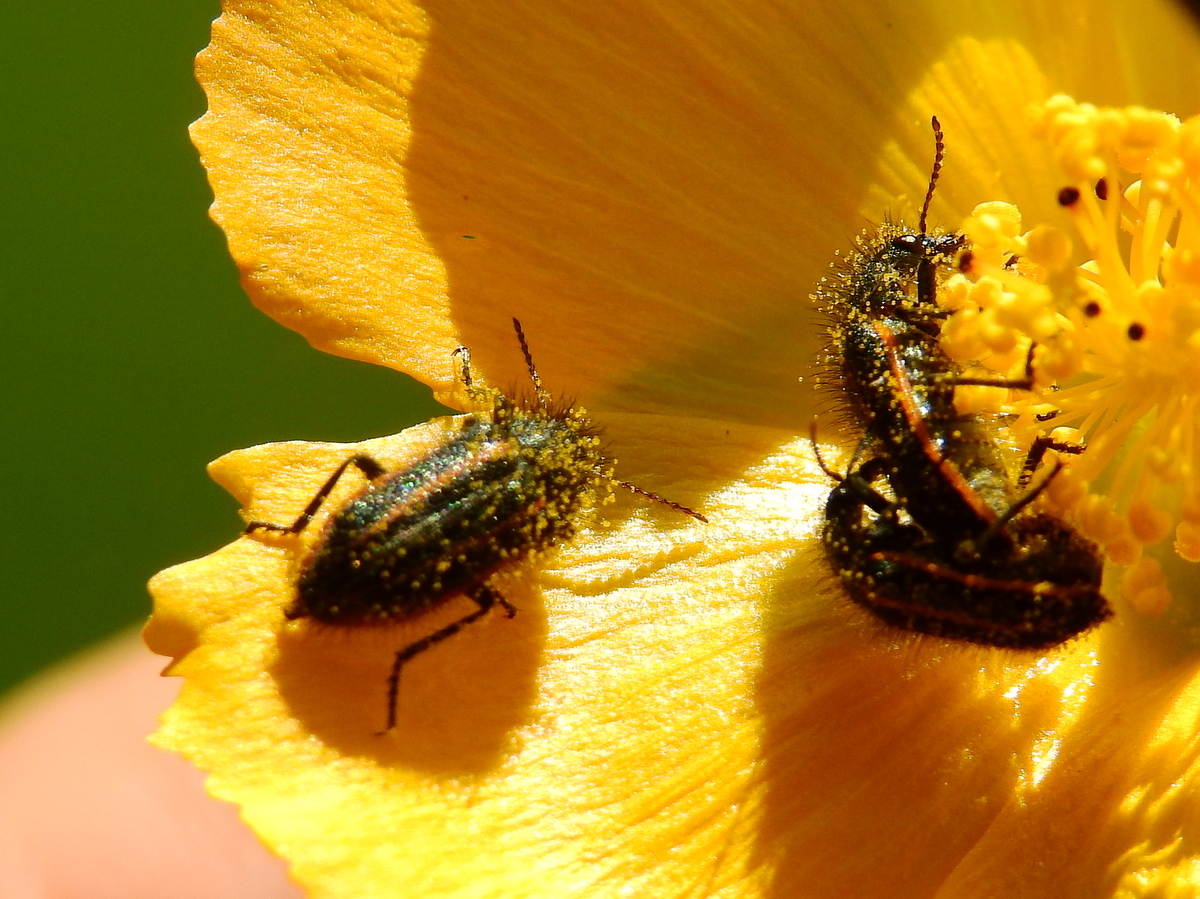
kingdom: Animalia
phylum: Arthropoda
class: Insecta
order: Coleoptera
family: Melyridae
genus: Astylus
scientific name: Astylus
